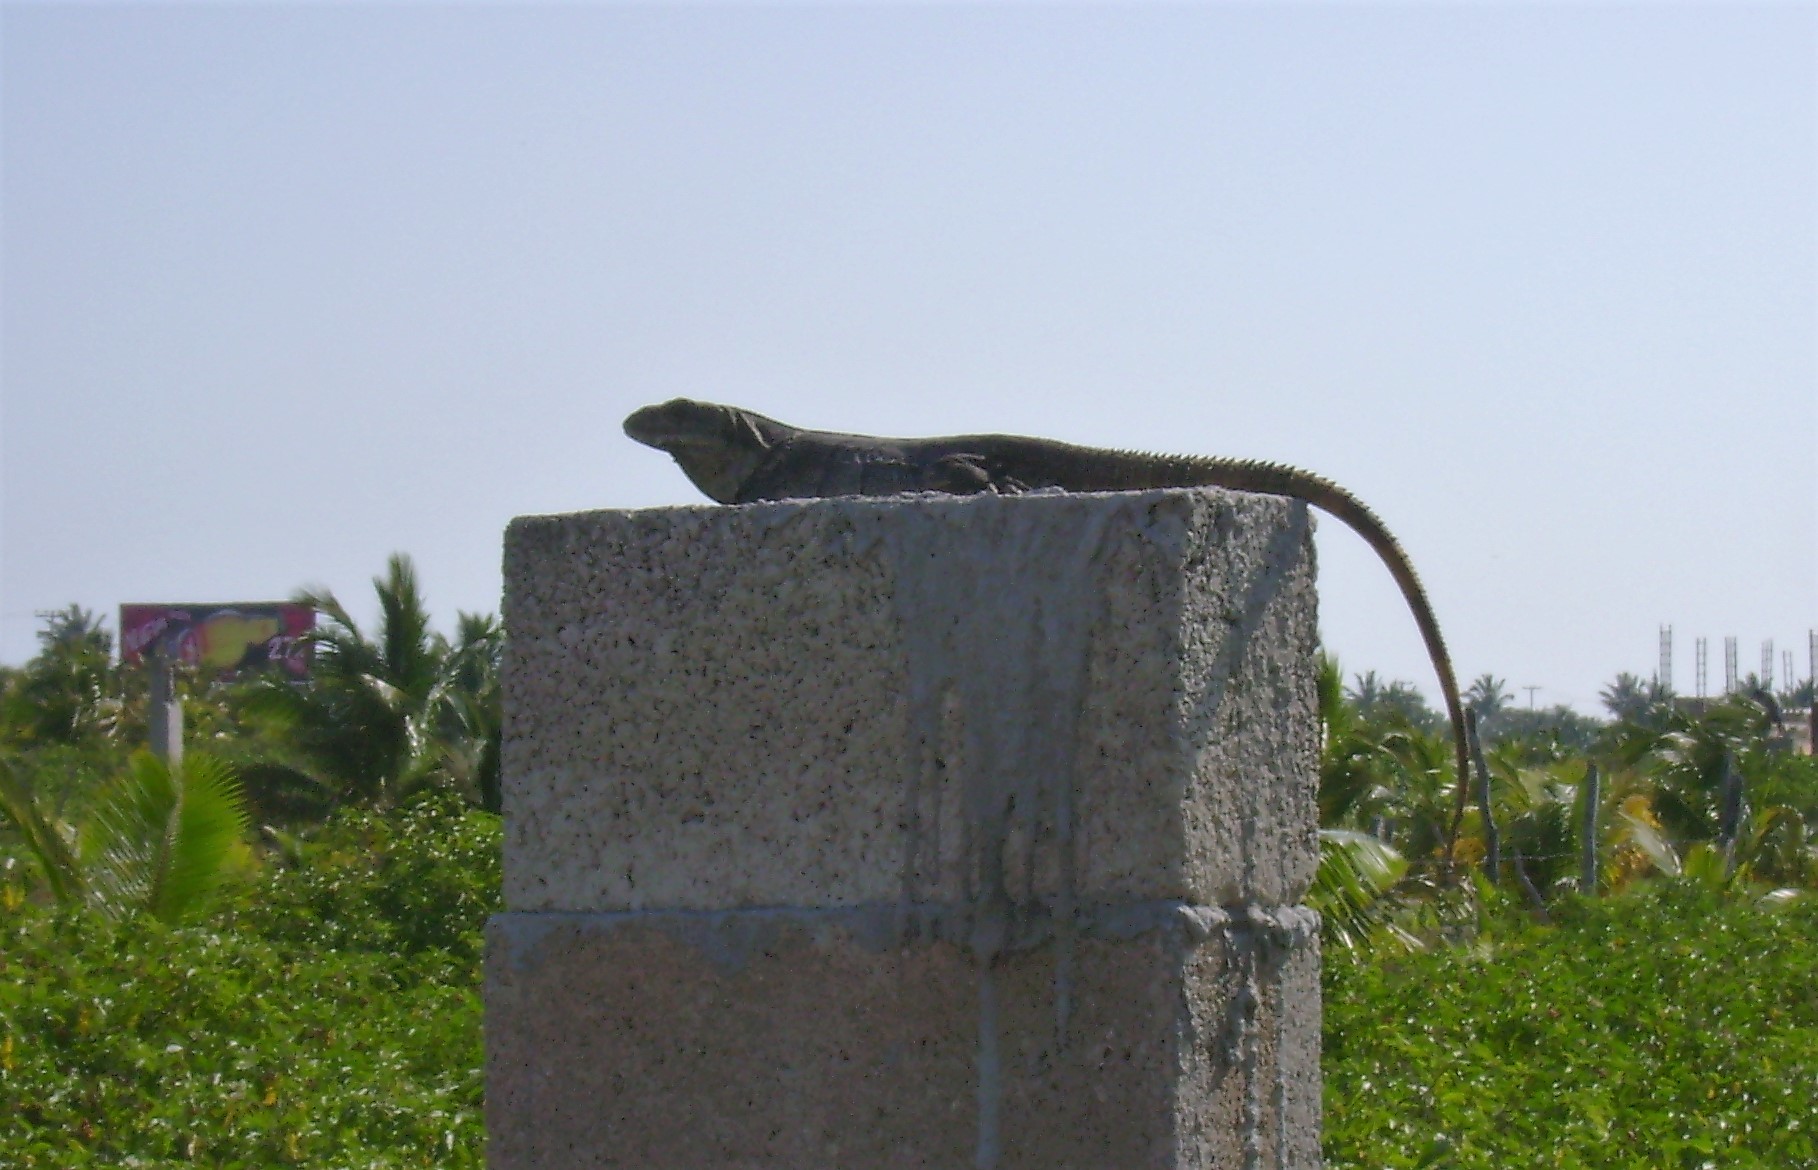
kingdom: Animalia
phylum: Chordata
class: Squamata
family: Iguanidae
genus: Ctenosaura
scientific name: Ctenosaura similis
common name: Black spiny-tailed iguana
